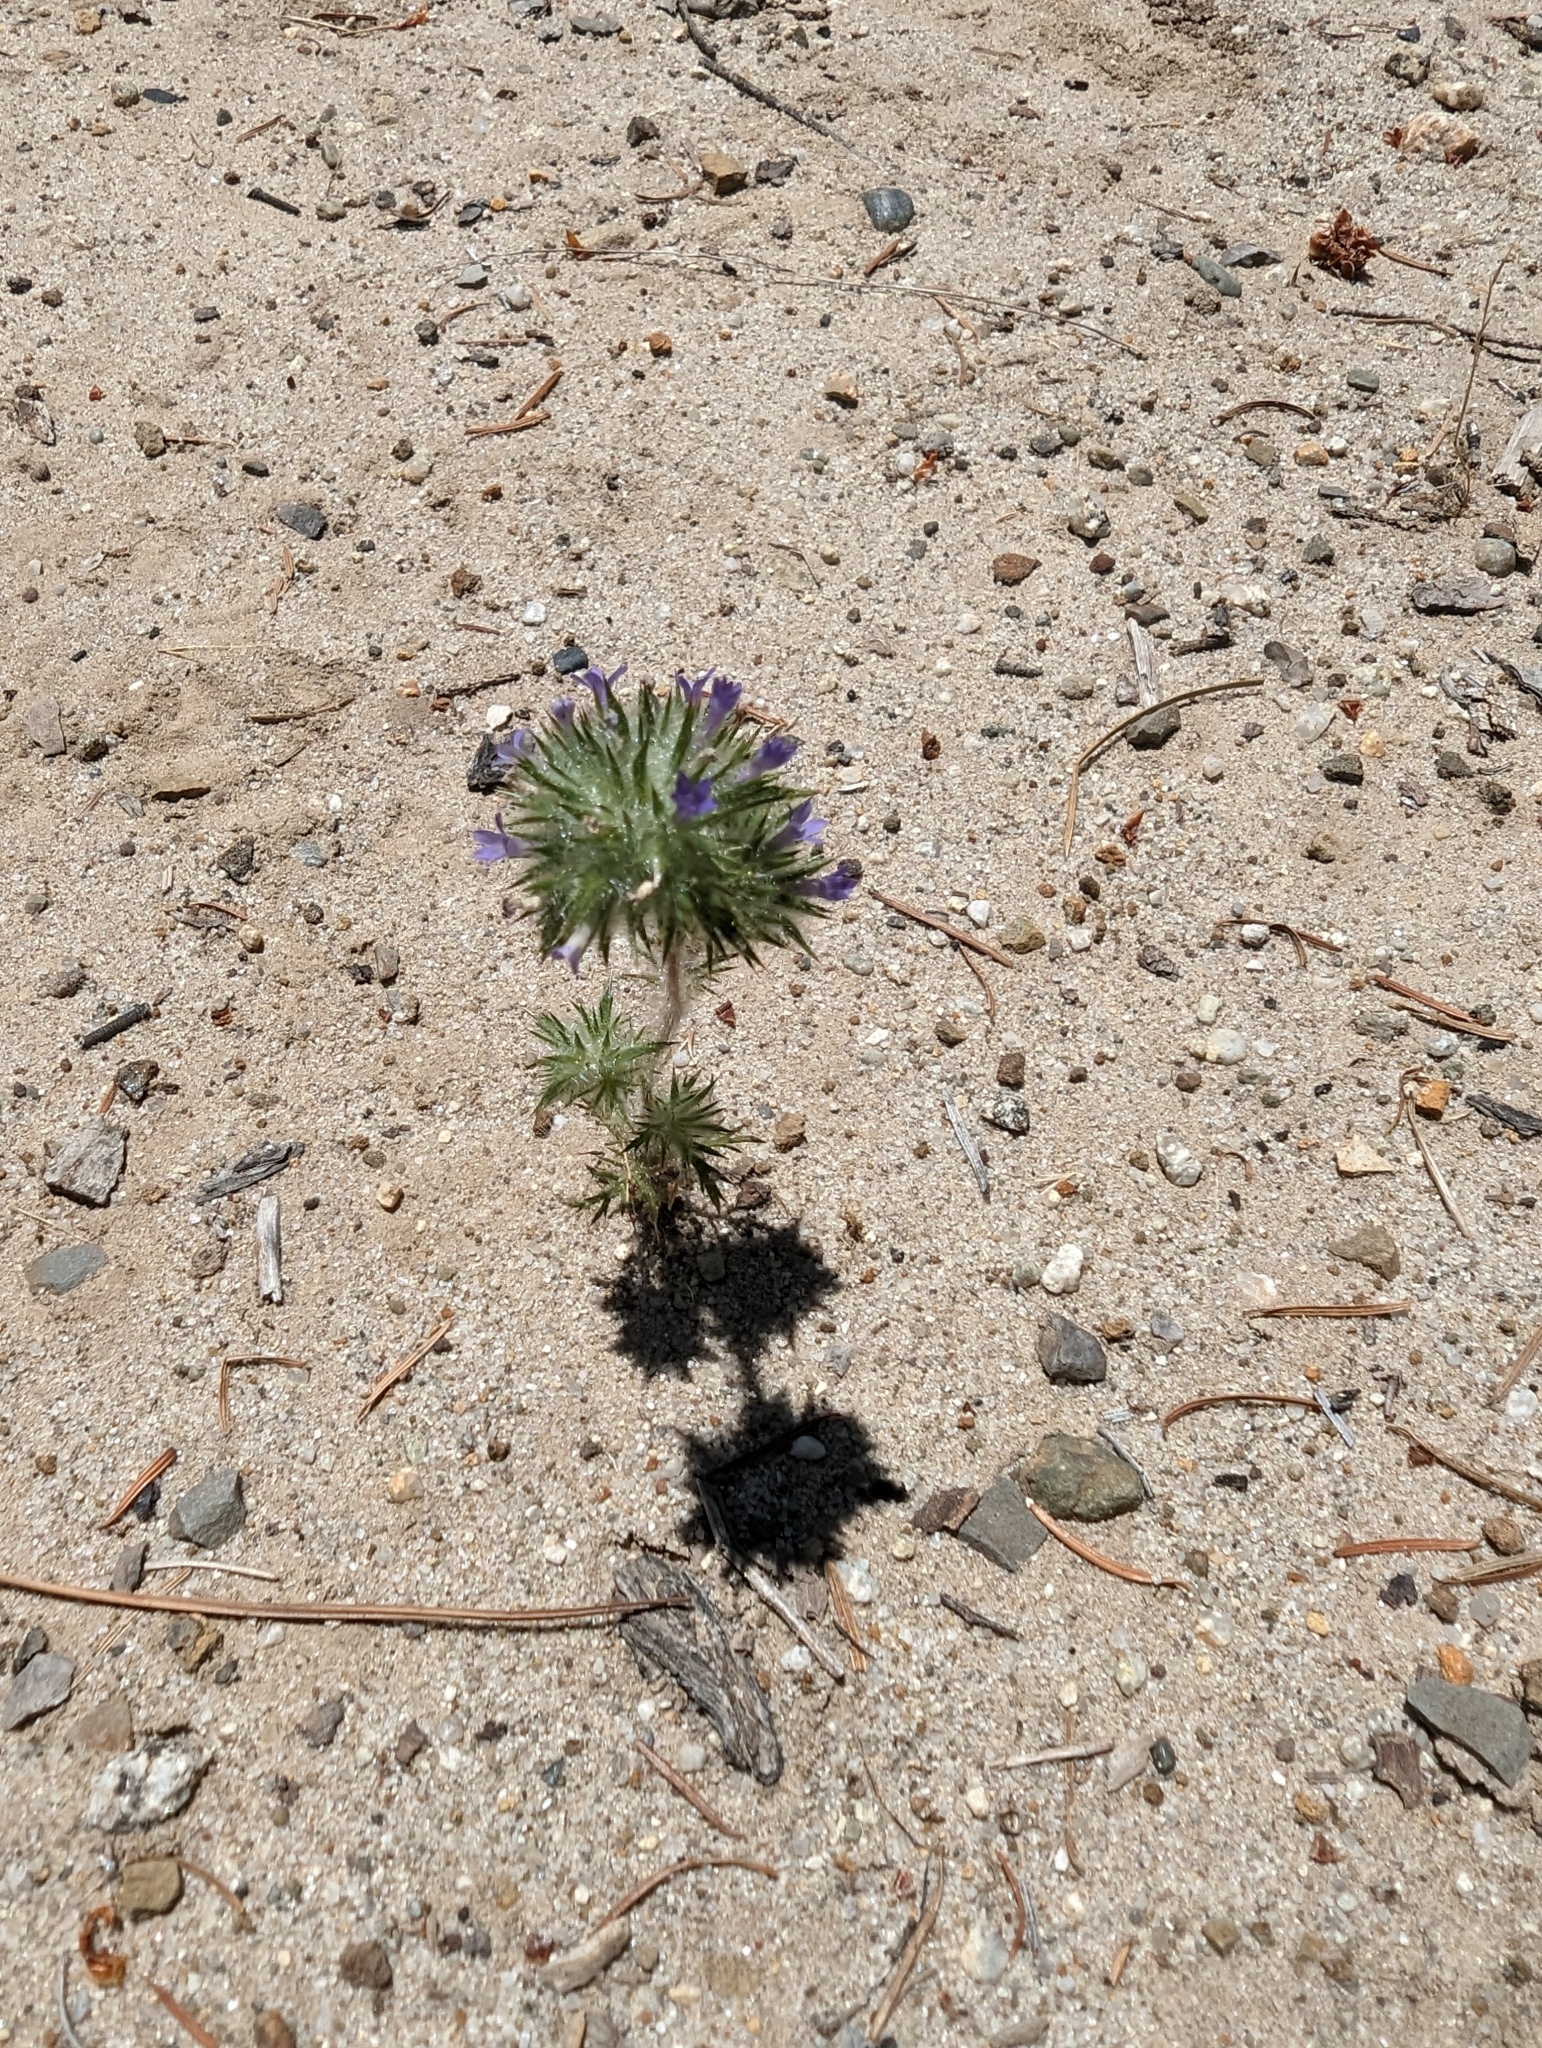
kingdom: Plantae
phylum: Tracheophyta
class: Magnoliopsida
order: Ericales
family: Polemoniaceae
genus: Navarretia
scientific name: Navarretia squarrosa
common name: Skunkweed
